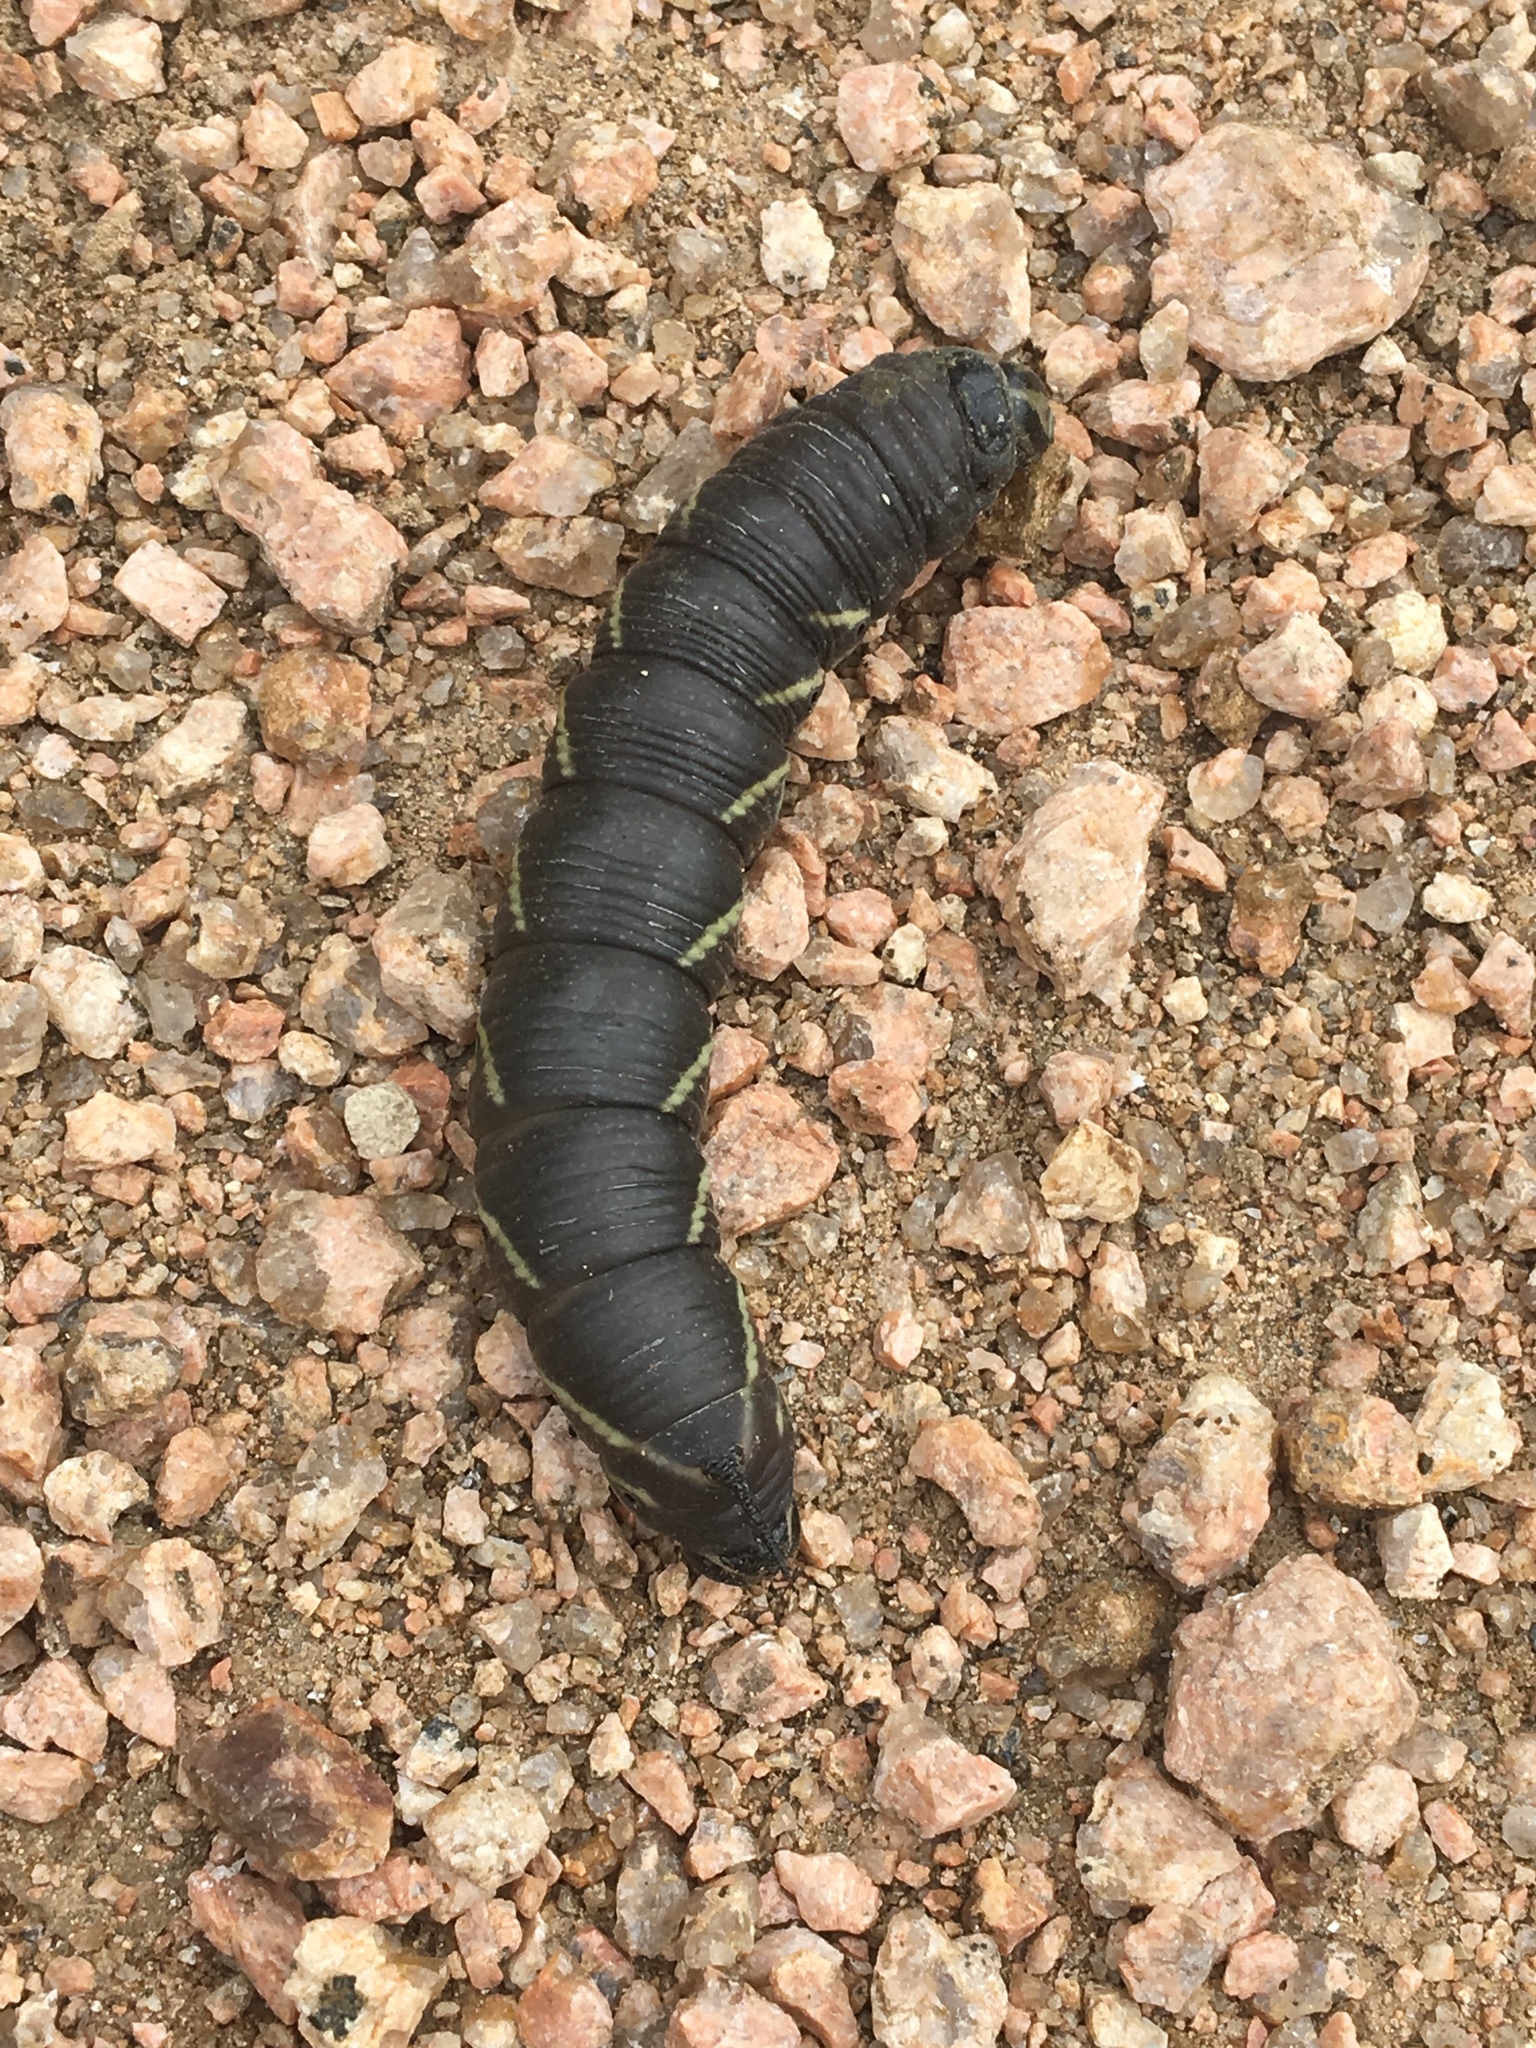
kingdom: Animalia
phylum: Arthropoda
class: Insecta
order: Lepidoptera
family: Sphingidae
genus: Manduca
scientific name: Manduca quinquemaculatus
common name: Five-spotted hawk-moth
